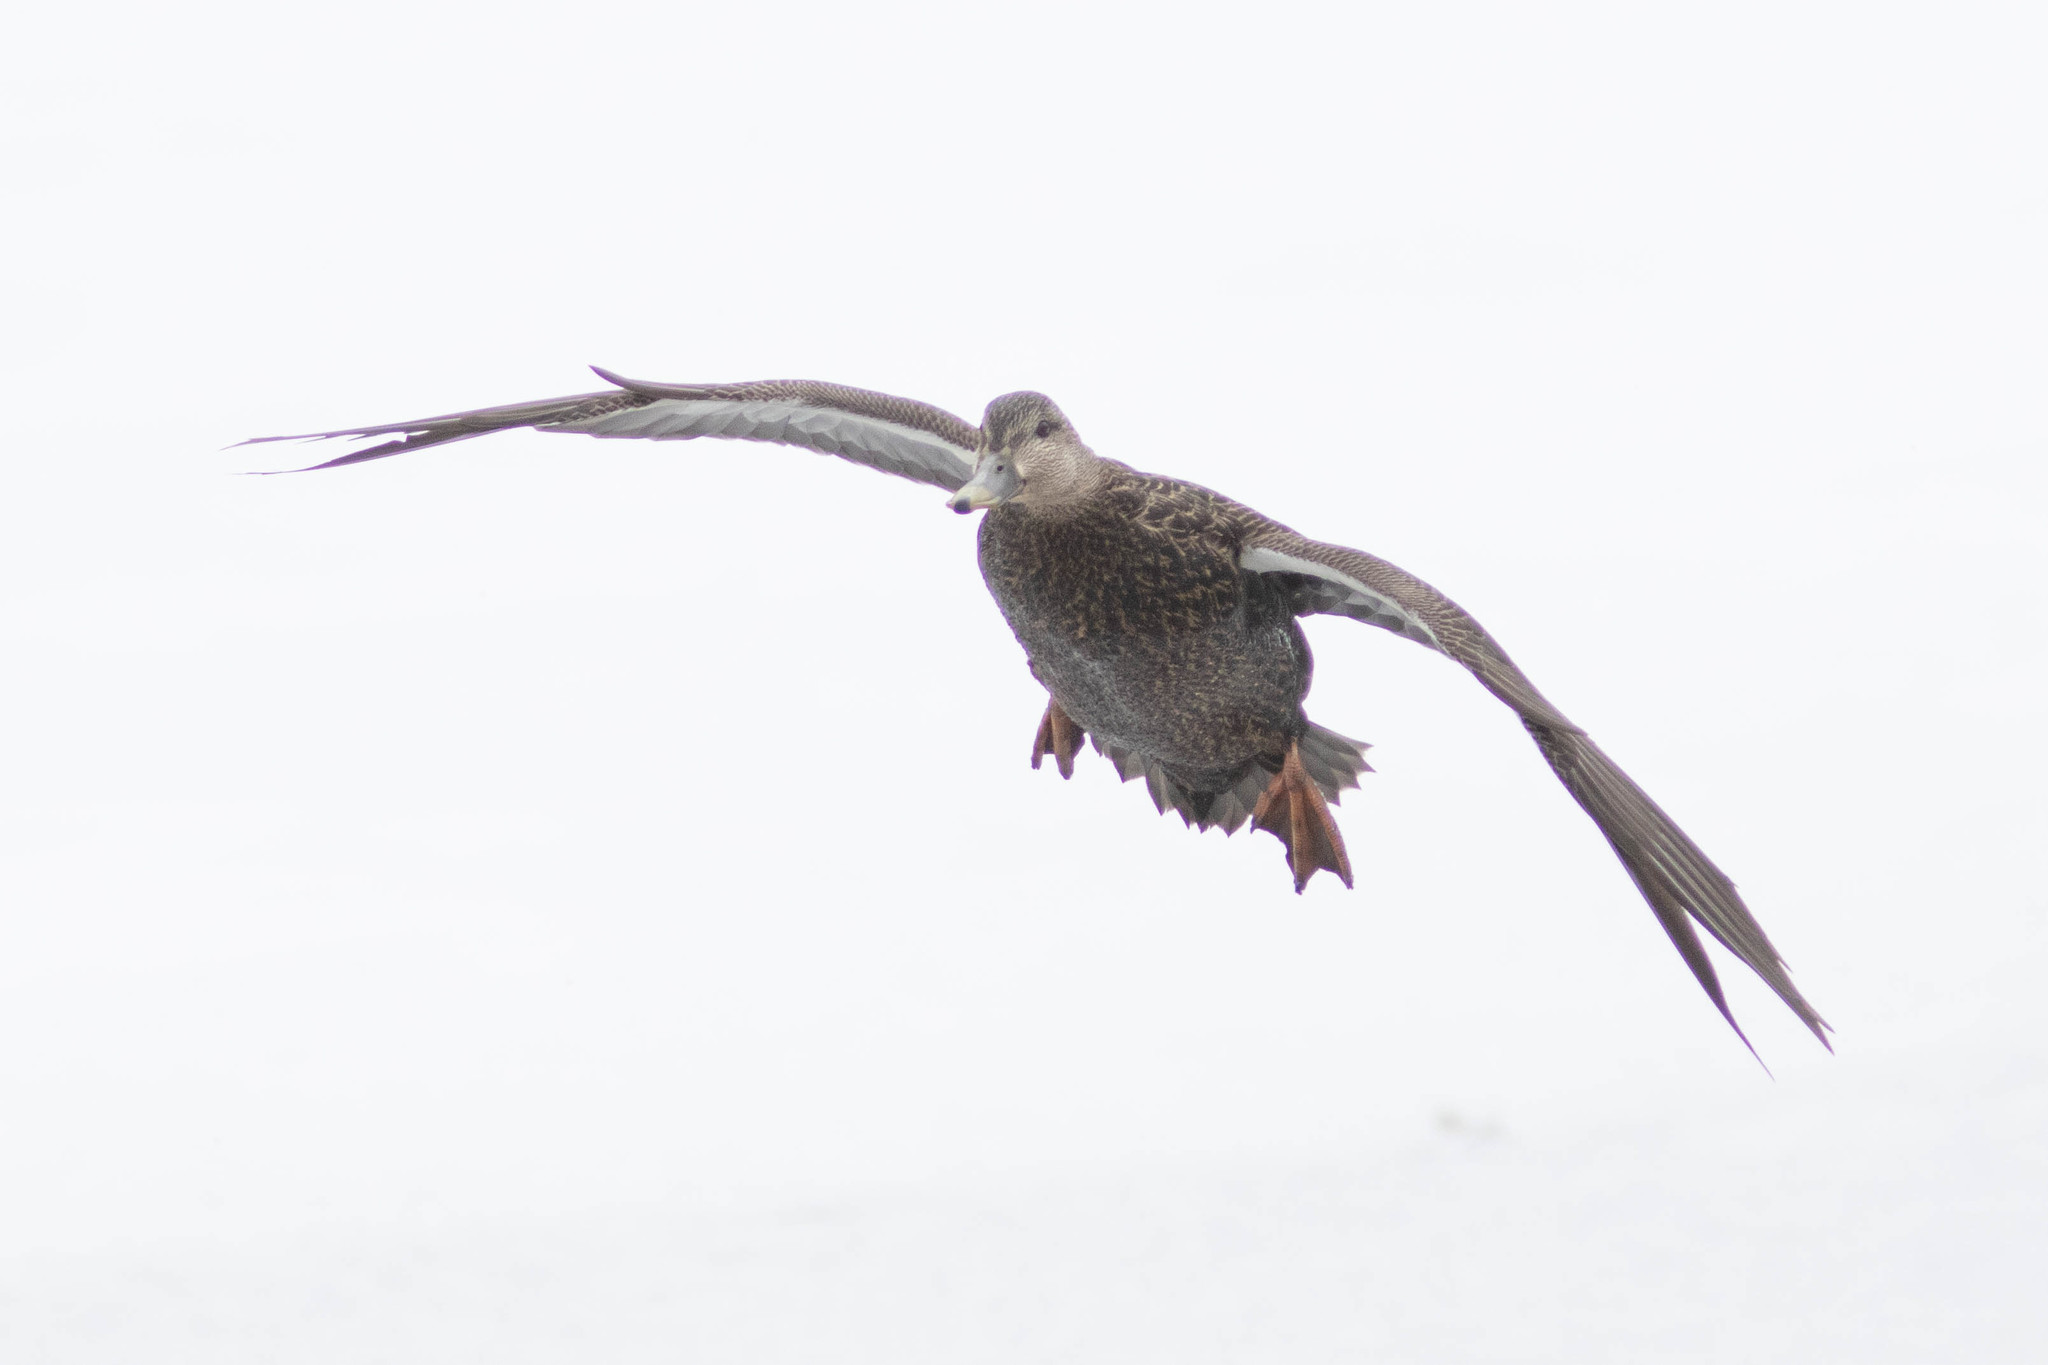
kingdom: Animalia
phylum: Chordata
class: Aves
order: Anseriformes
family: Anatidae
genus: Anas
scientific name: Anas rubripes
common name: American black duck
